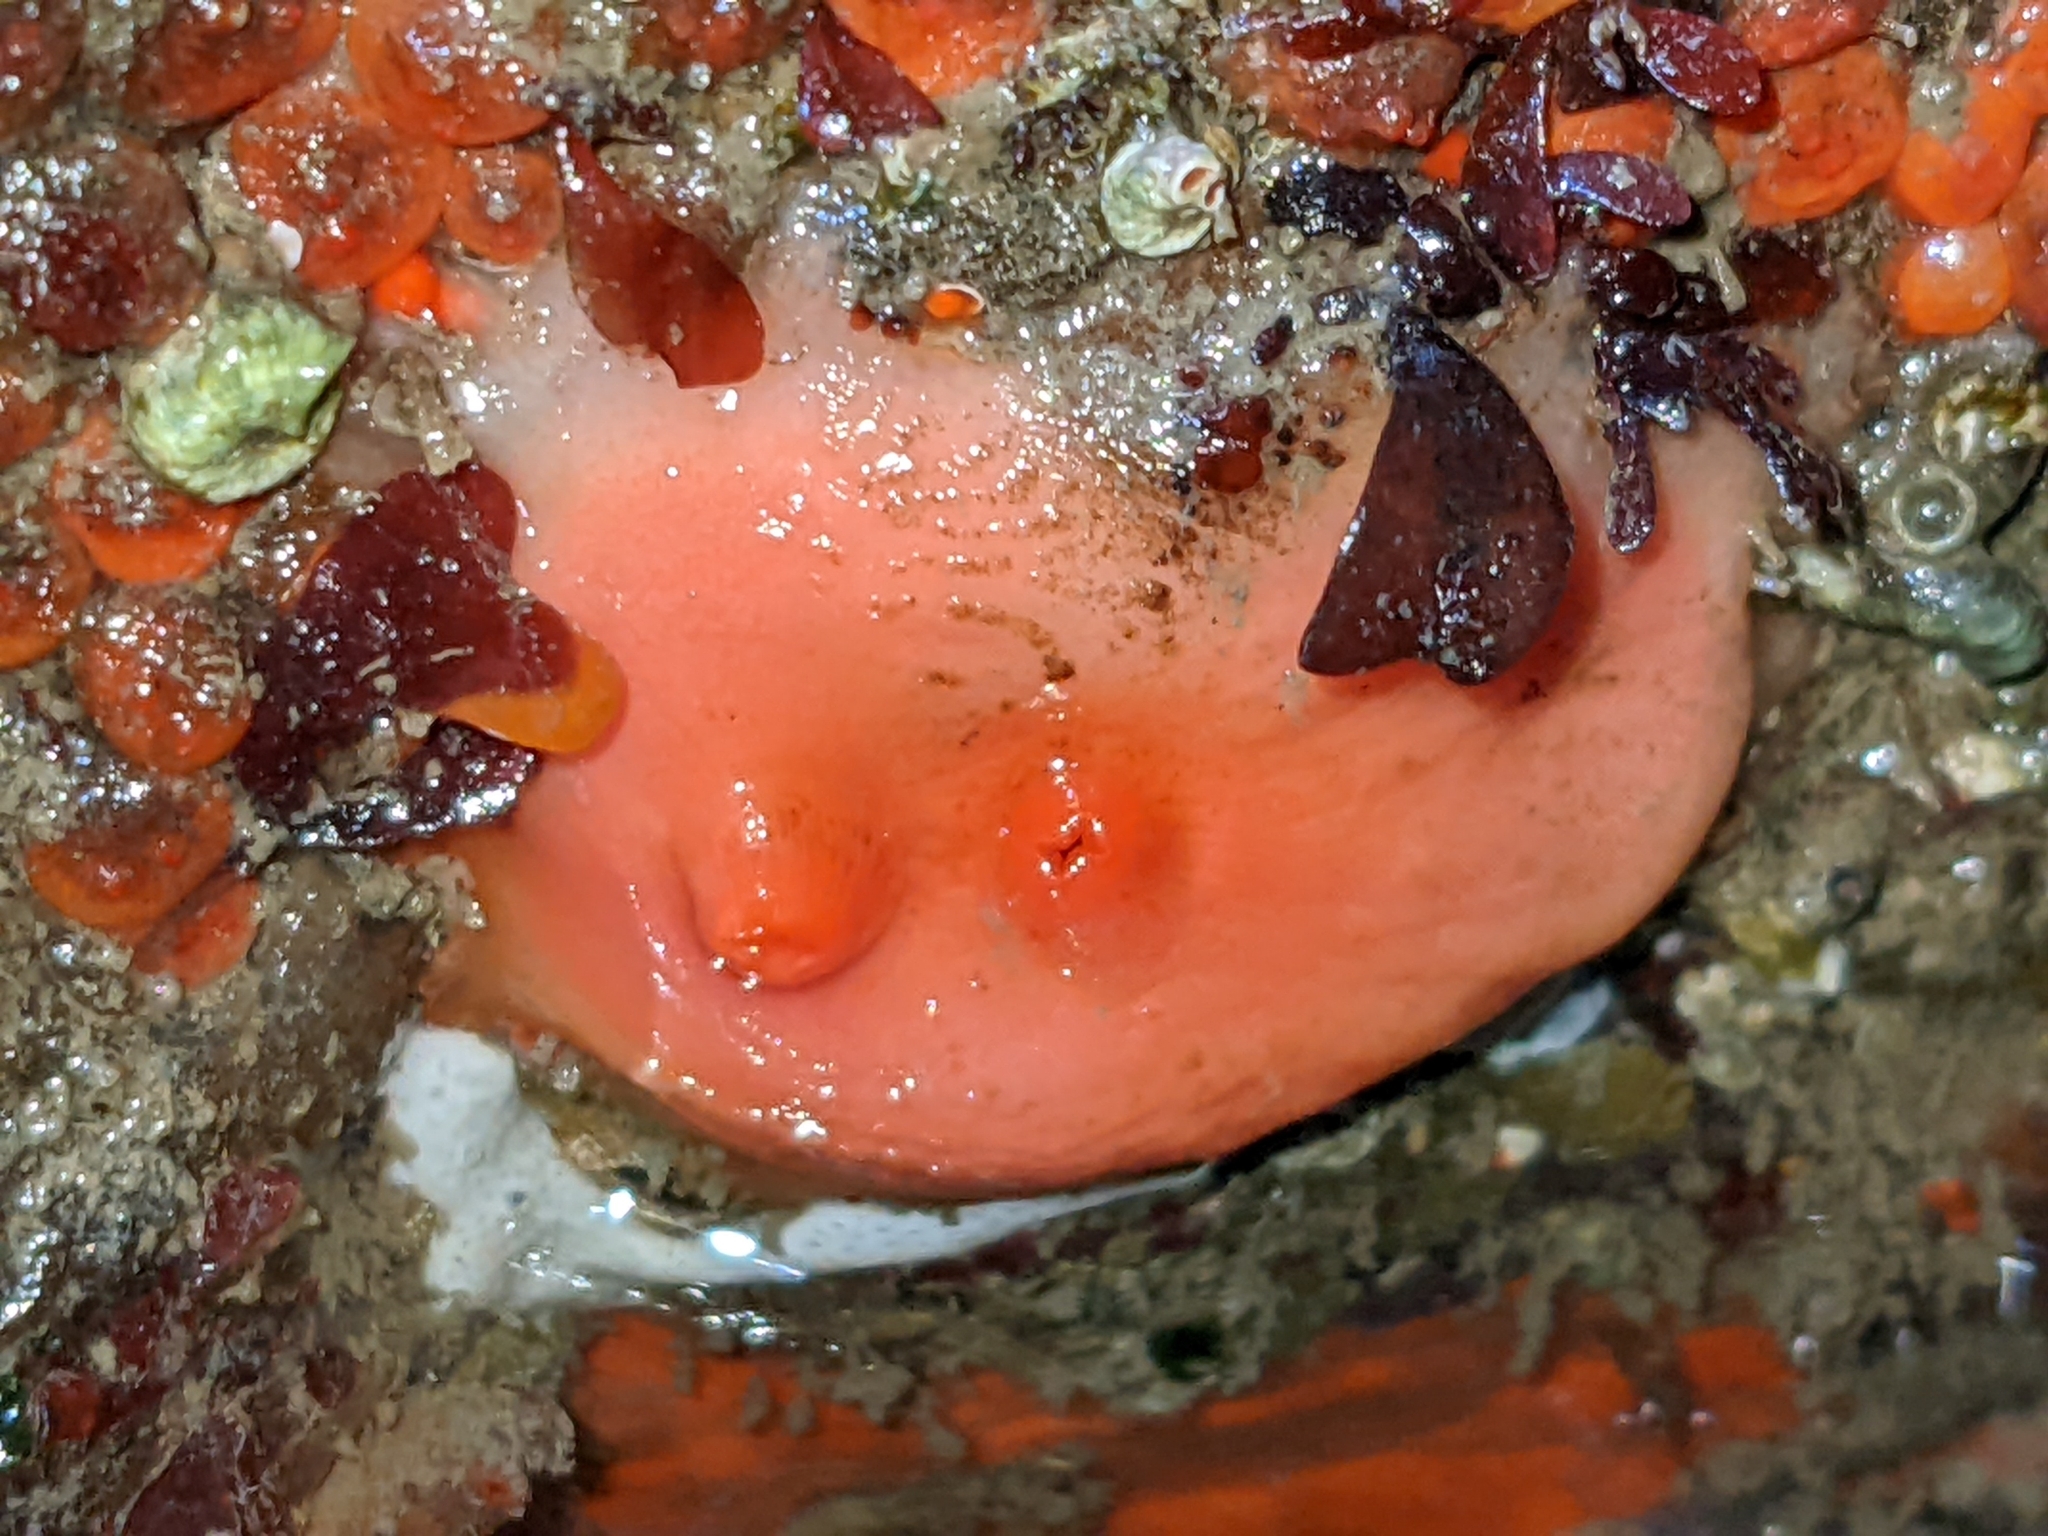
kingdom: Animalia
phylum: Chordata
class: Ascidiacea
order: Stolidobranchia
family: Styelidae
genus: Cnemidocarpa
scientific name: Cnemidocarpa finmarkiensis
